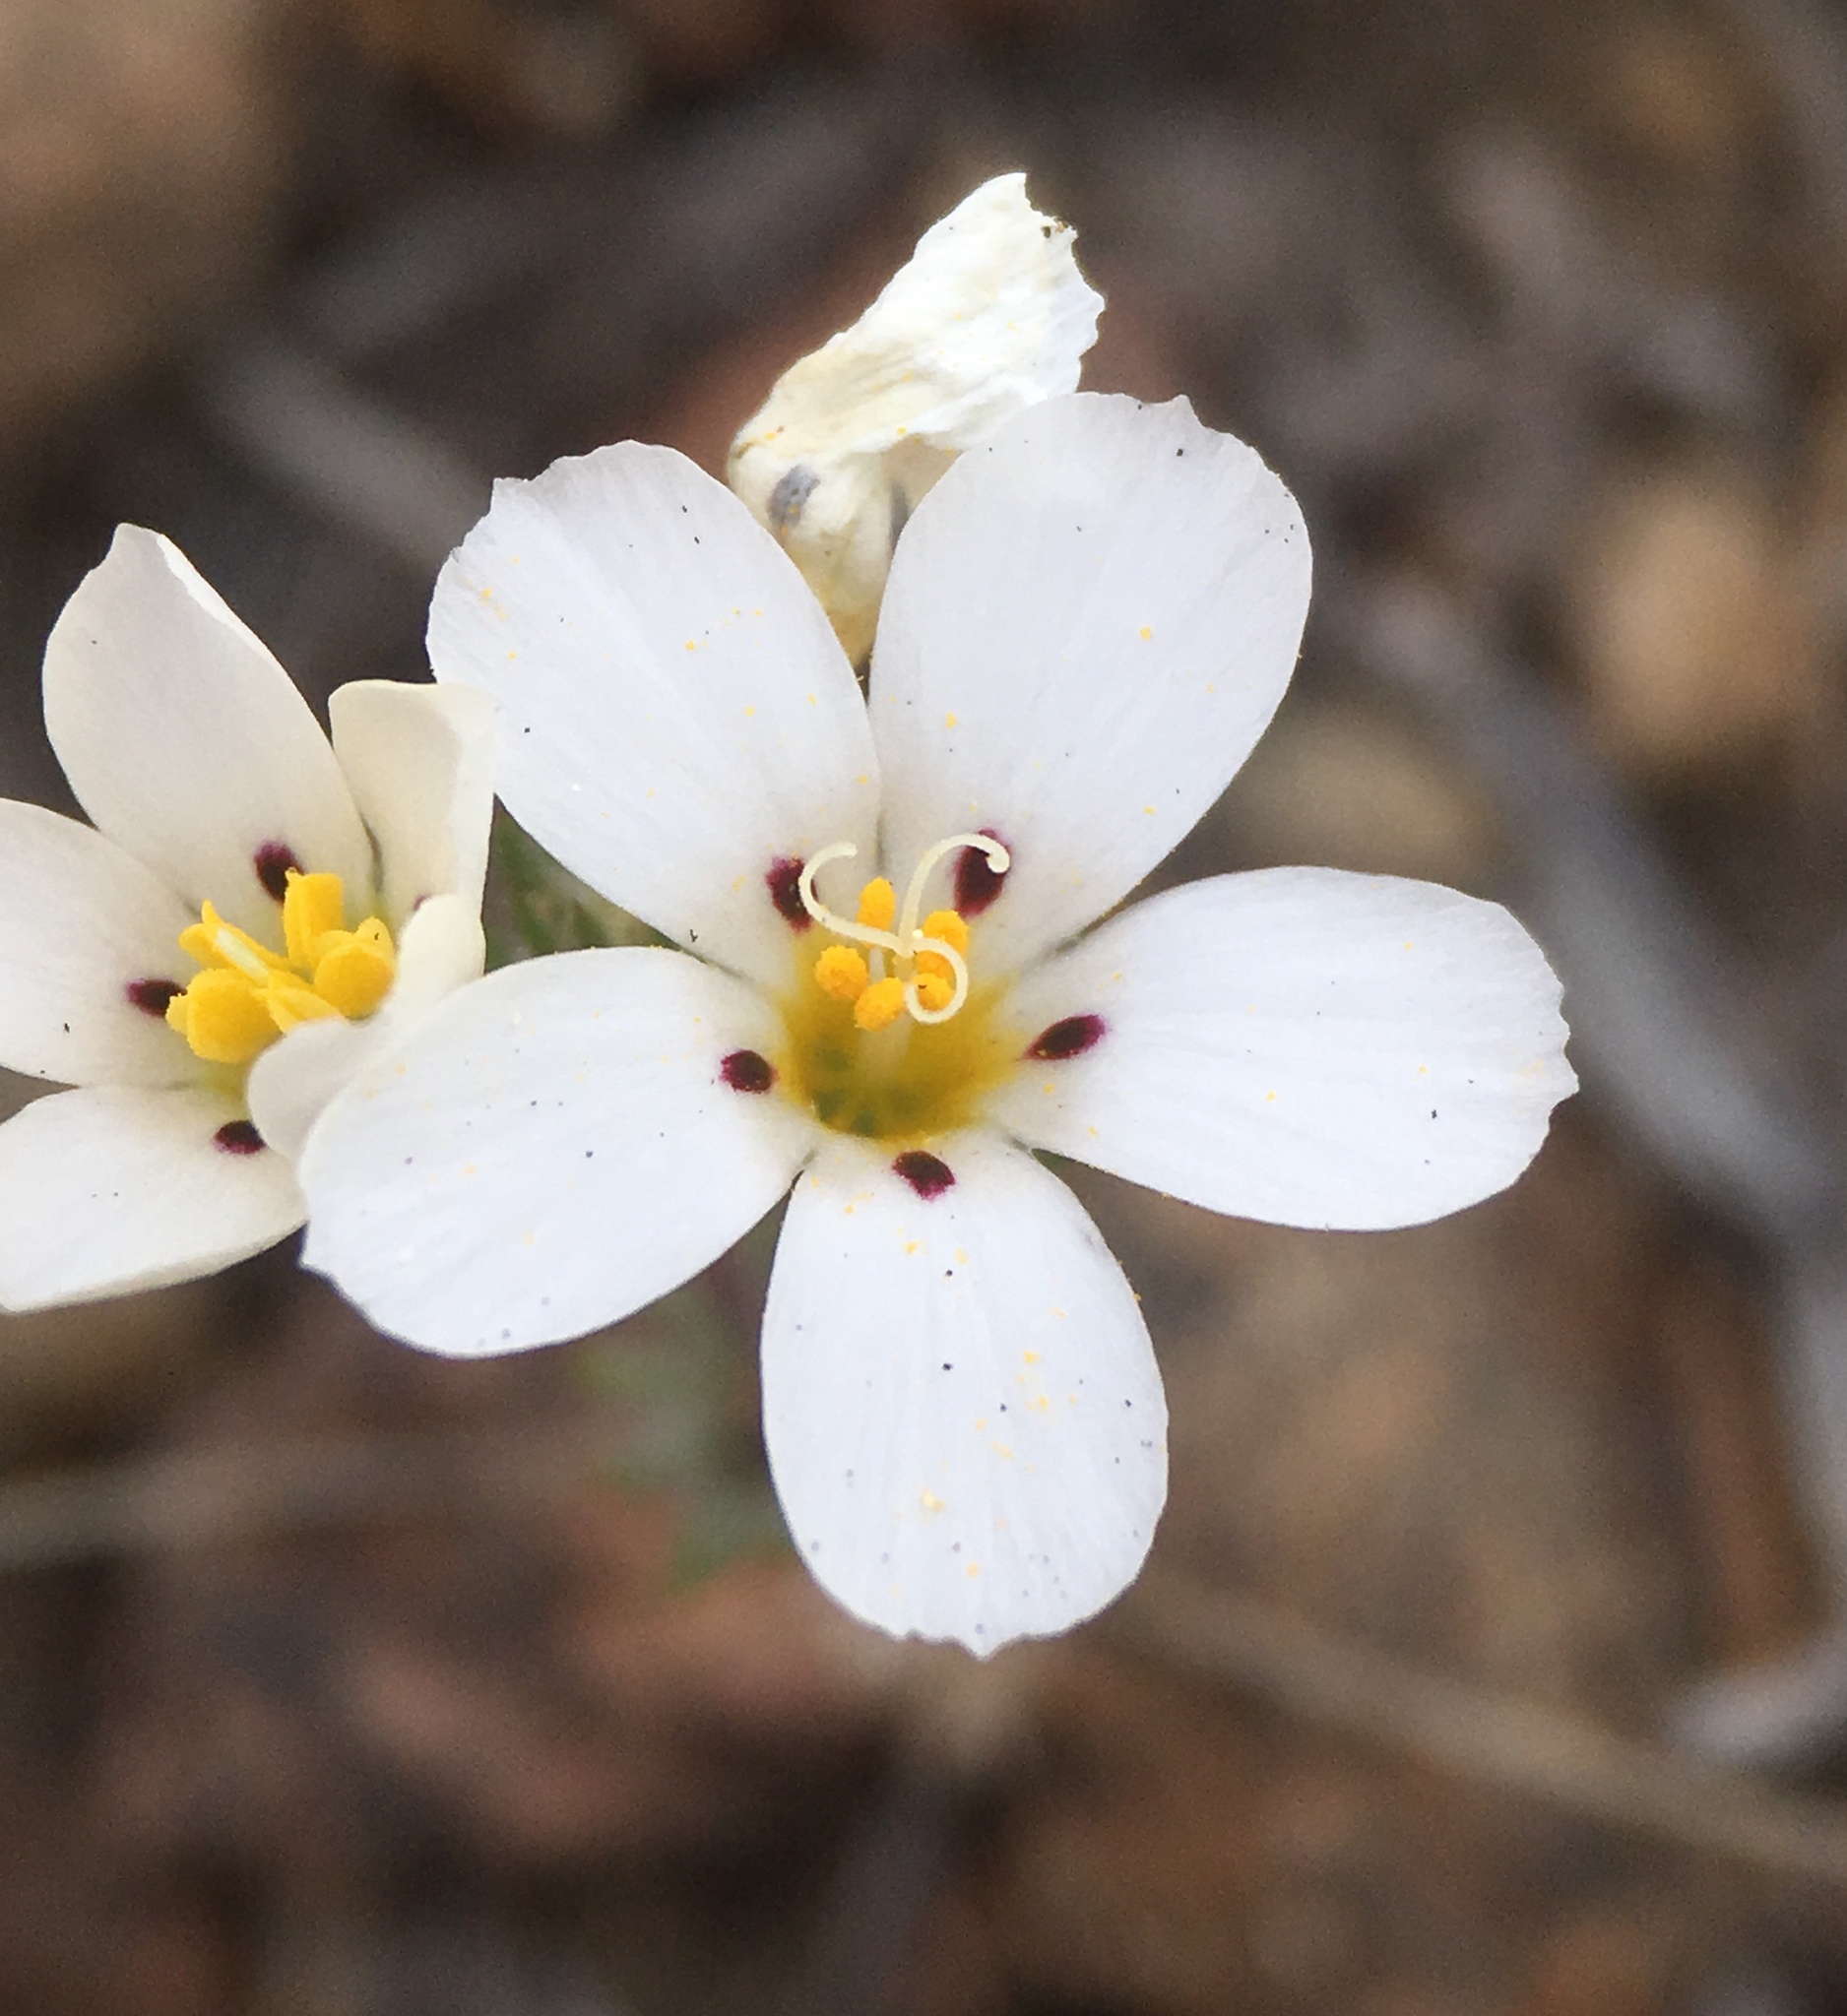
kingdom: Plantae
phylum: Tracheophyta
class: Magnoliopsida
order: Ericales
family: Polemoniaceae
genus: Linanthus
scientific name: Linanthus killipii
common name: Baldwin lake linanthus
